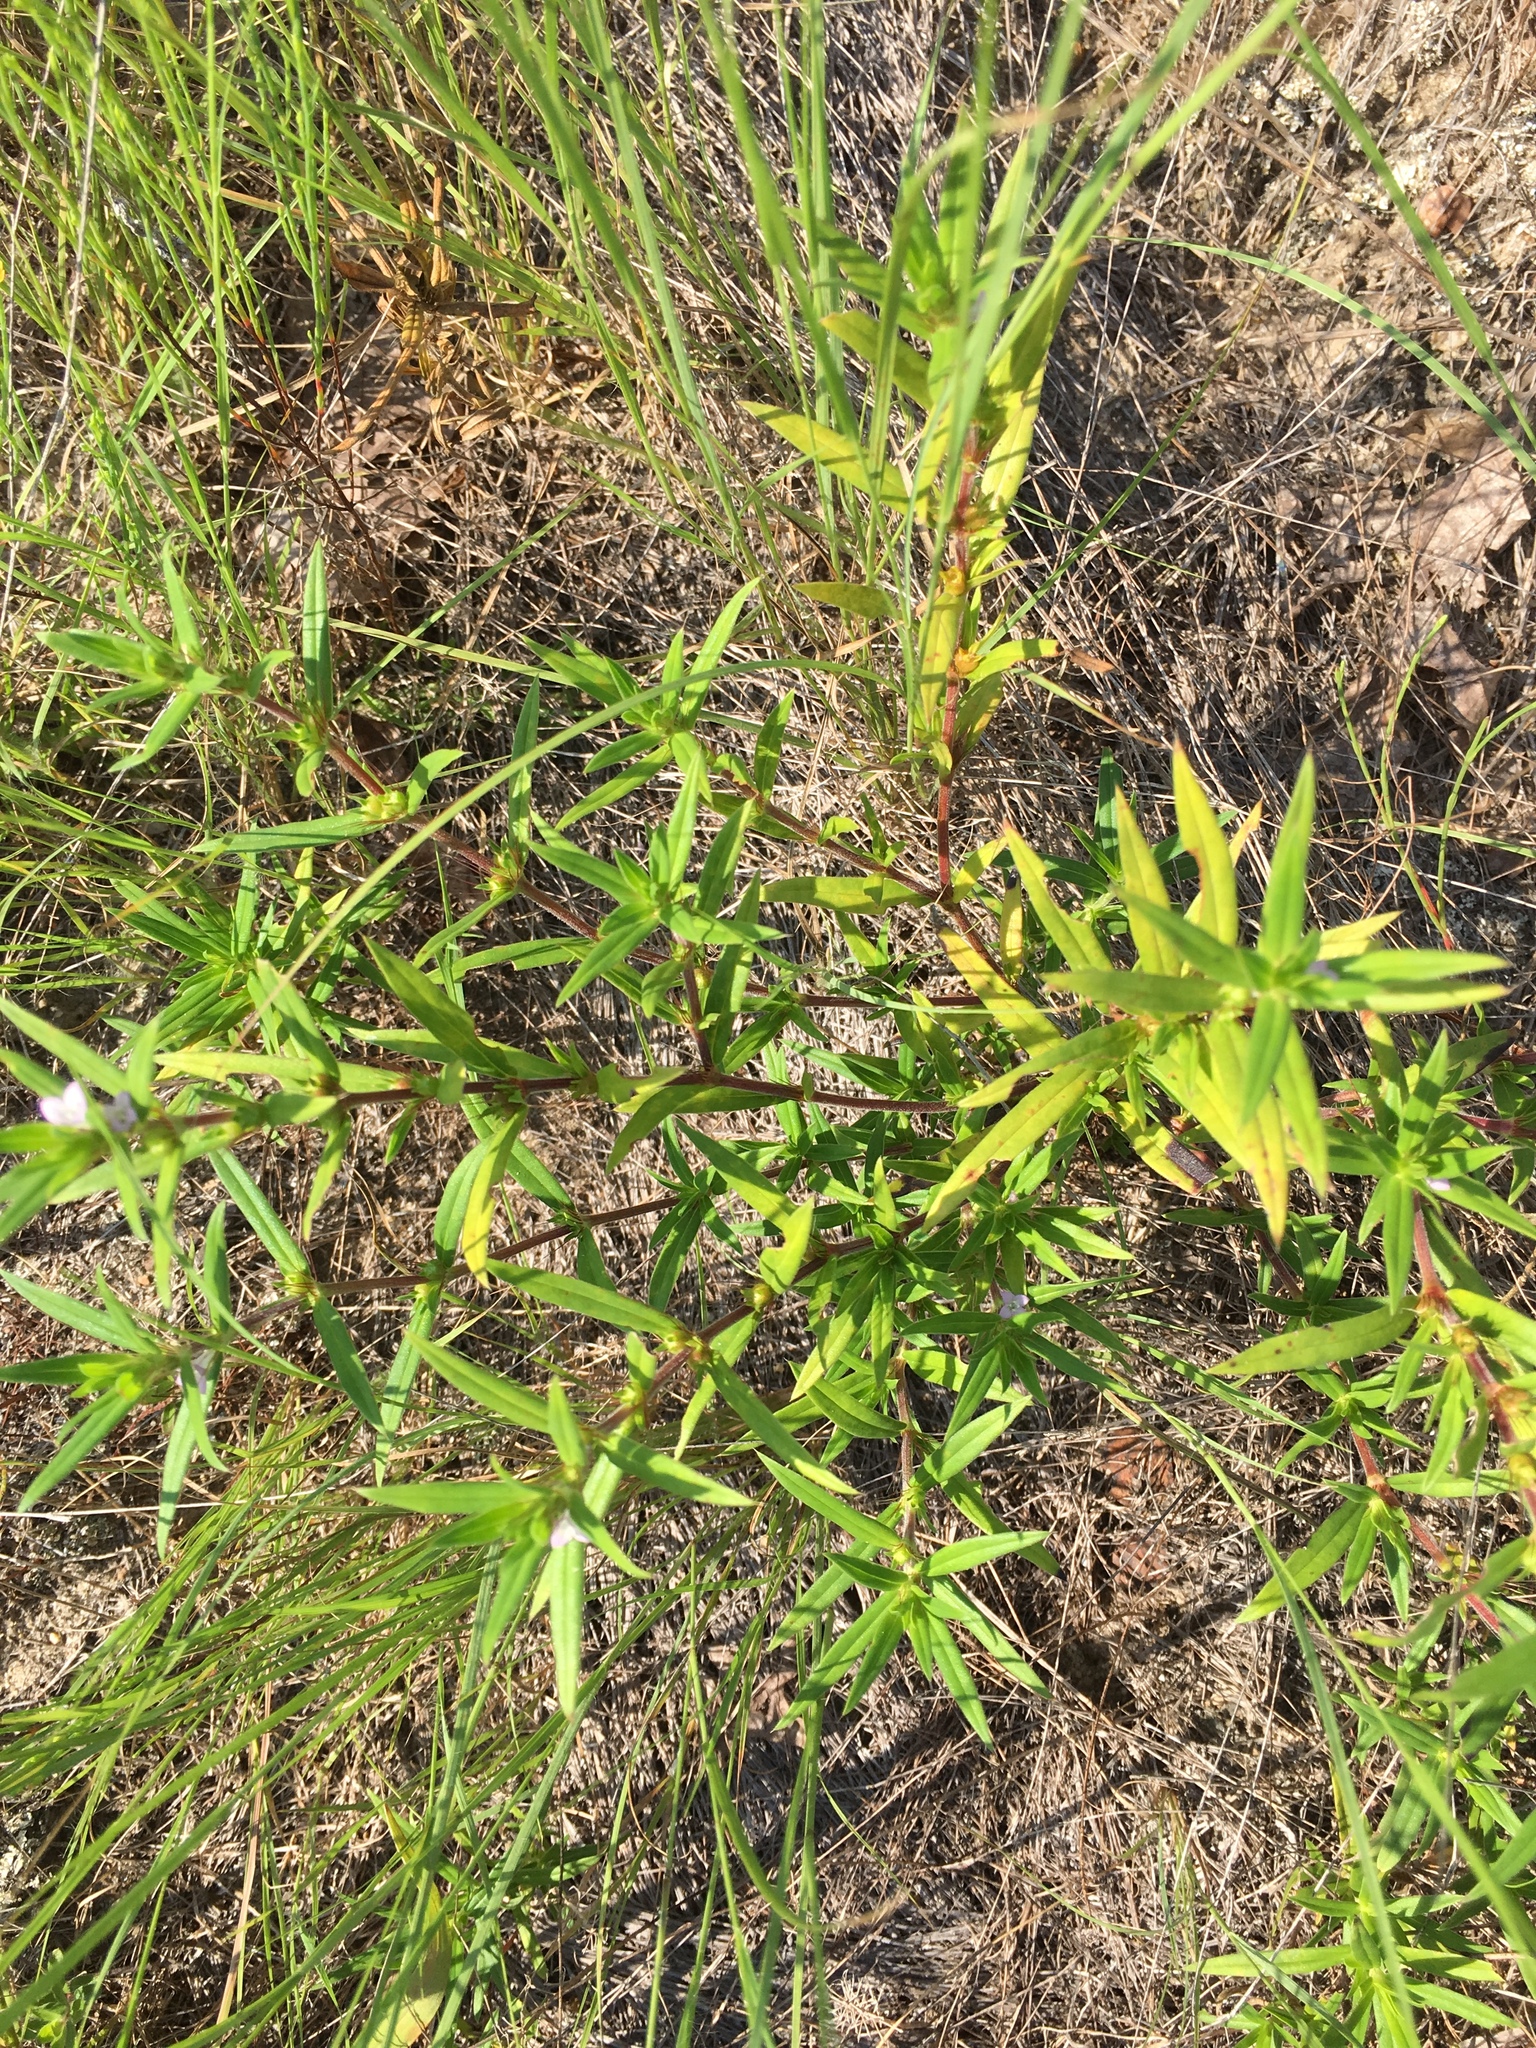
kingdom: Plantae
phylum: Tracheophyta
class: Magnoliopsida
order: Gentianales
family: Rubiaceae
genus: Hexasepalum
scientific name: Hexasepalum teres
